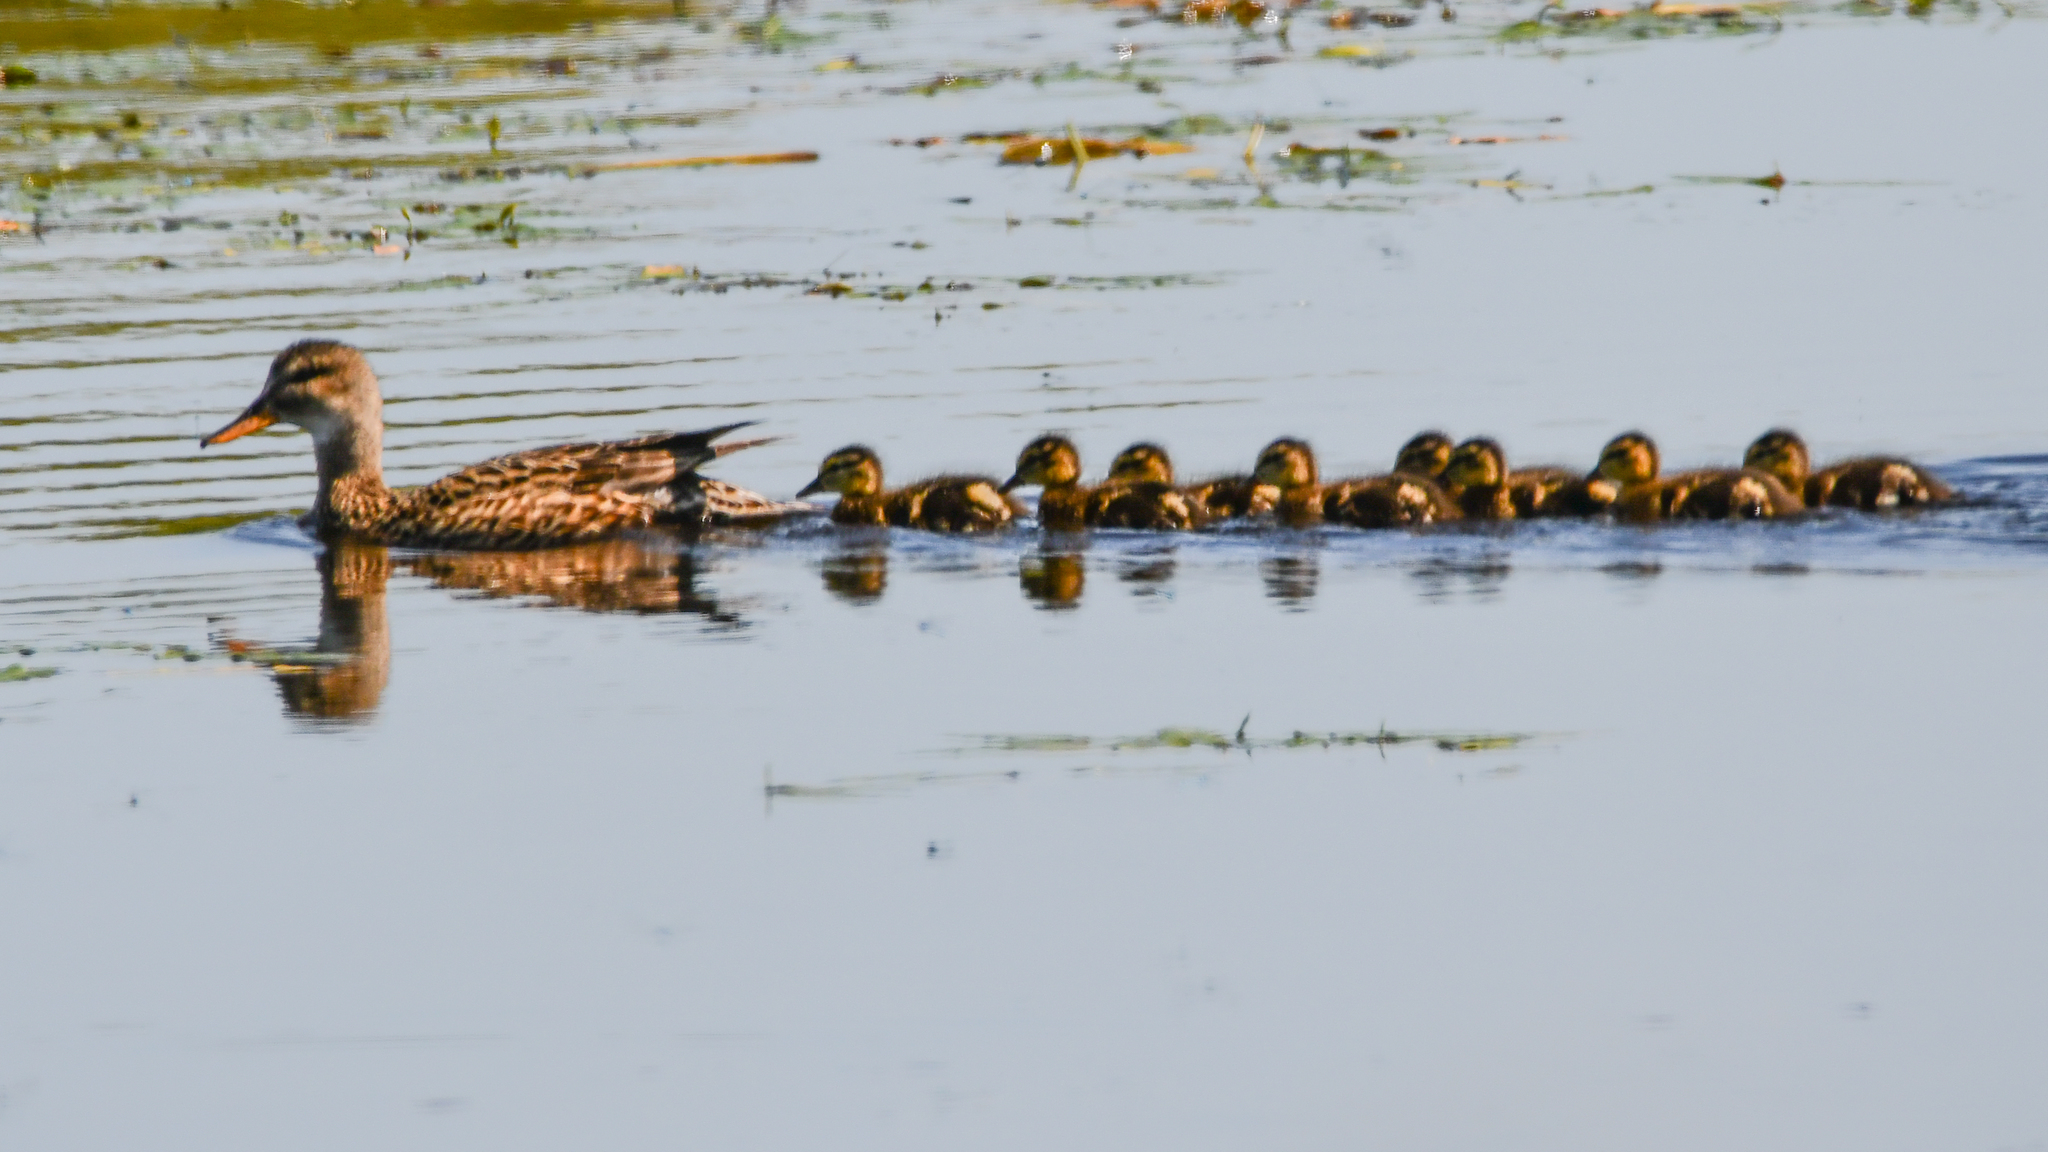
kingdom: Animalia
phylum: Chordata
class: Aves
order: Anseriformes
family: Anatidae
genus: Mareca
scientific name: Mareca strepera
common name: Gadwall
